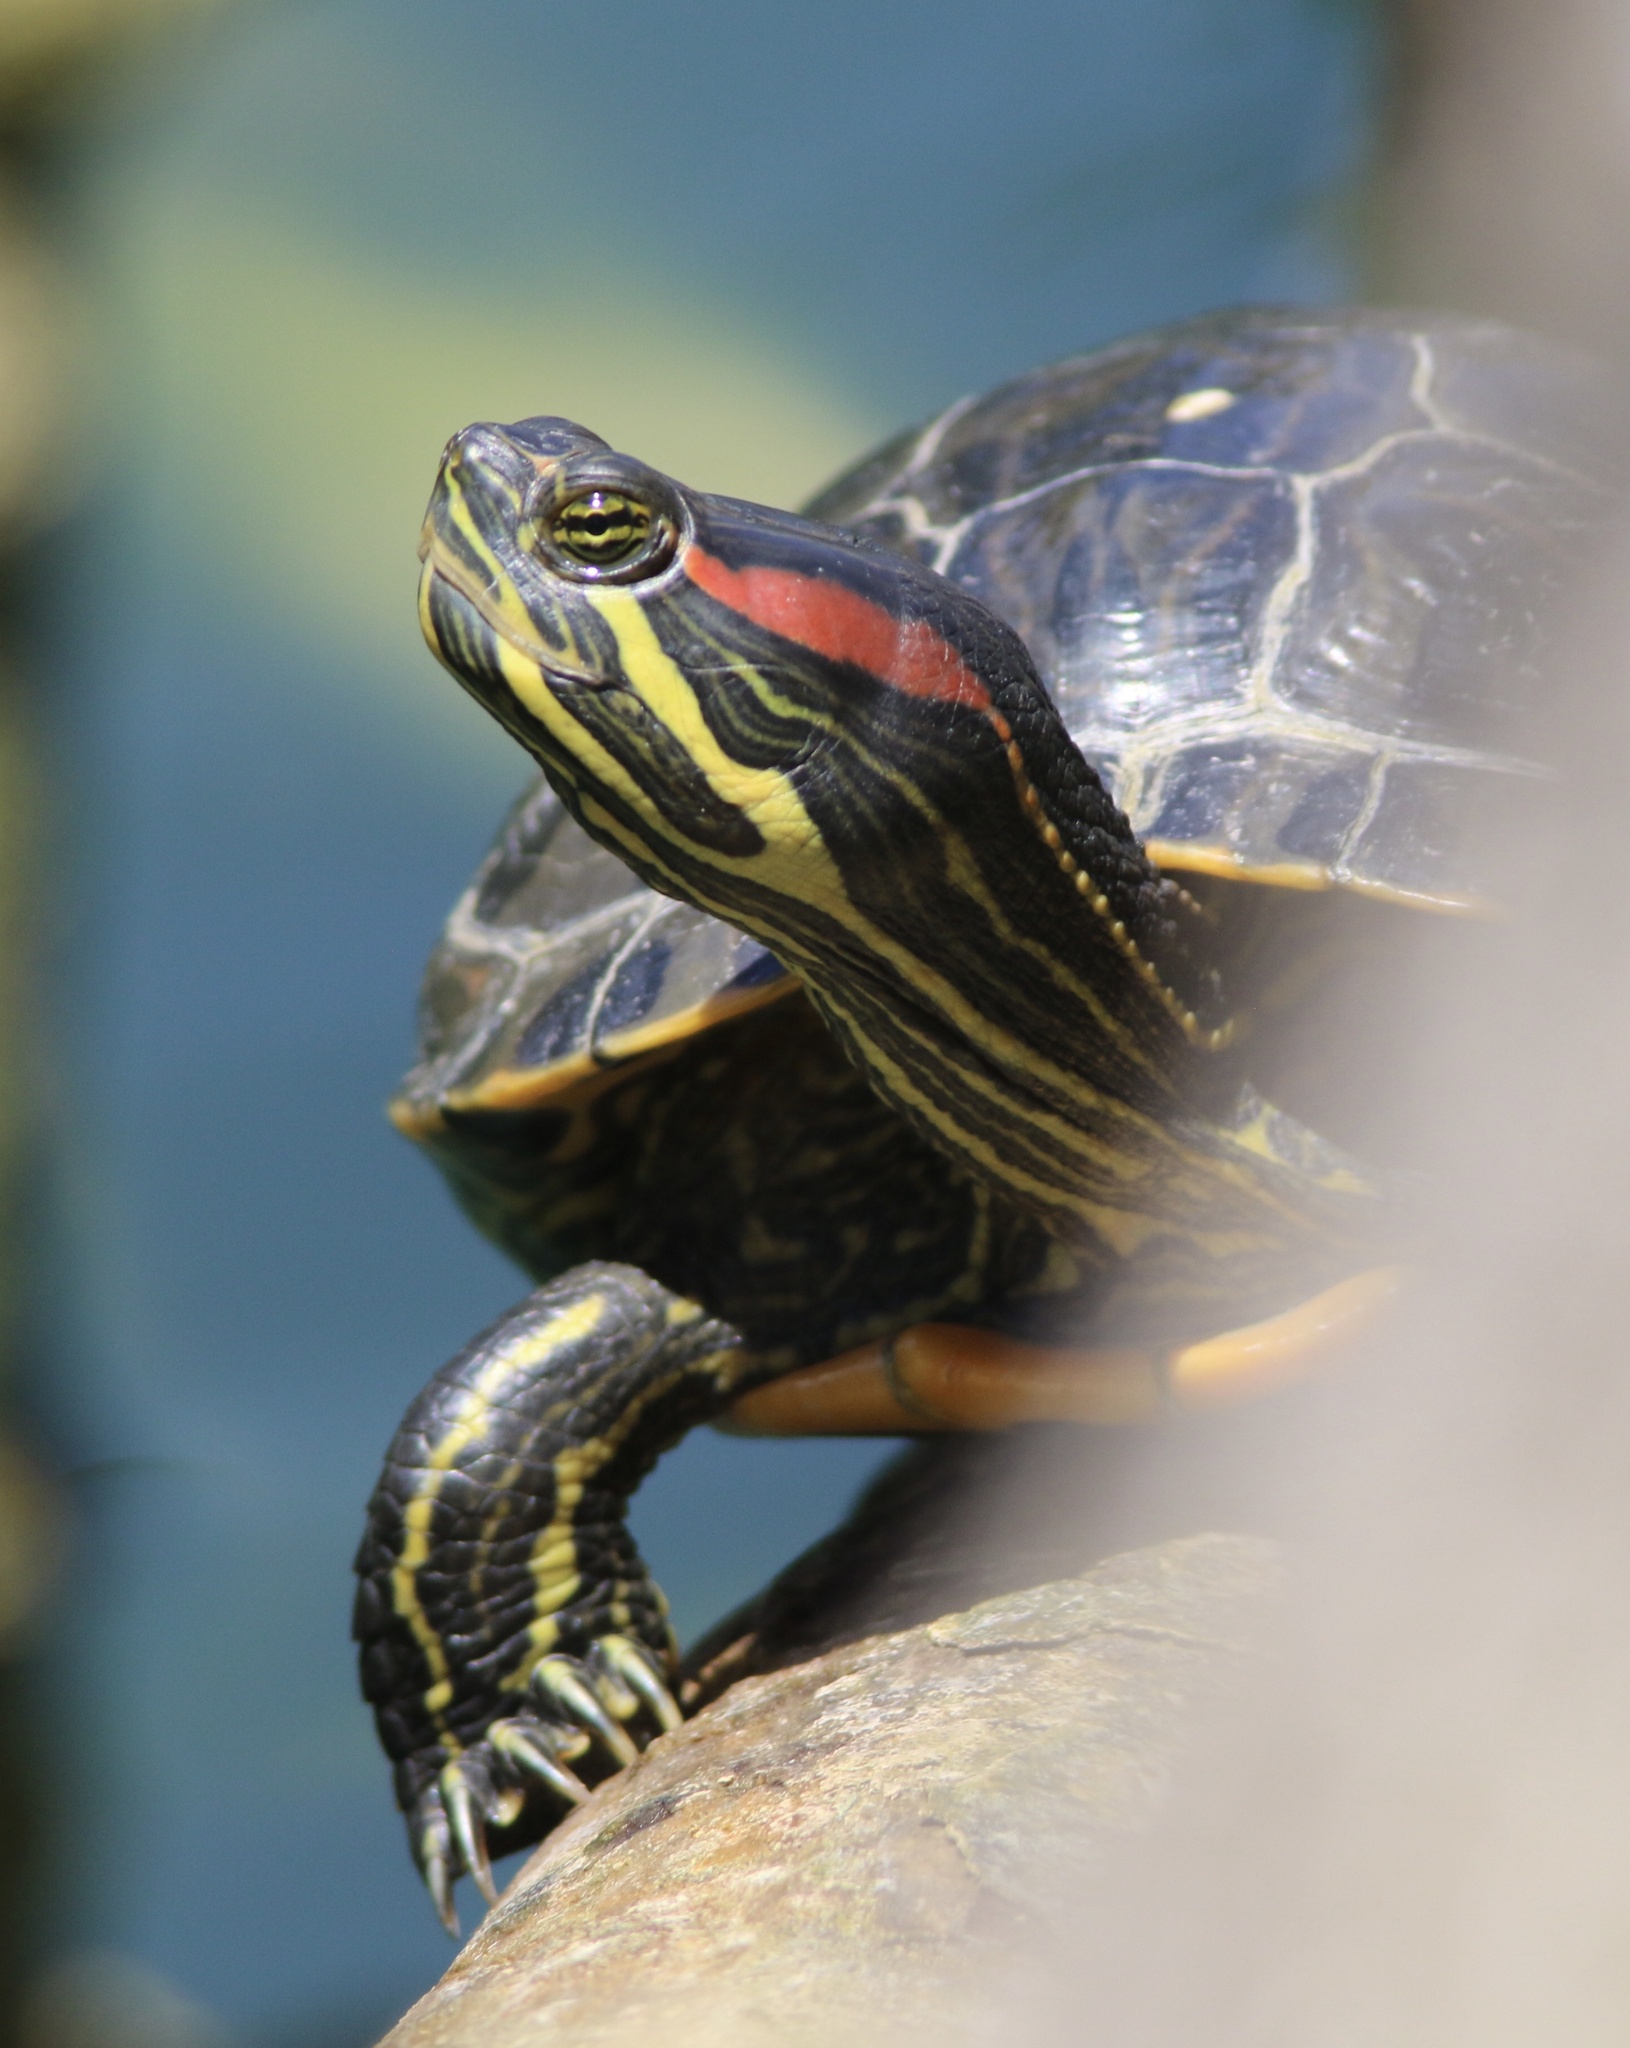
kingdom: Animalia
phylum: Chordata
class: Testudines
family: Emydidae
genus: Trachemys
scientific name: Trachemys scripta
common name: Slider
